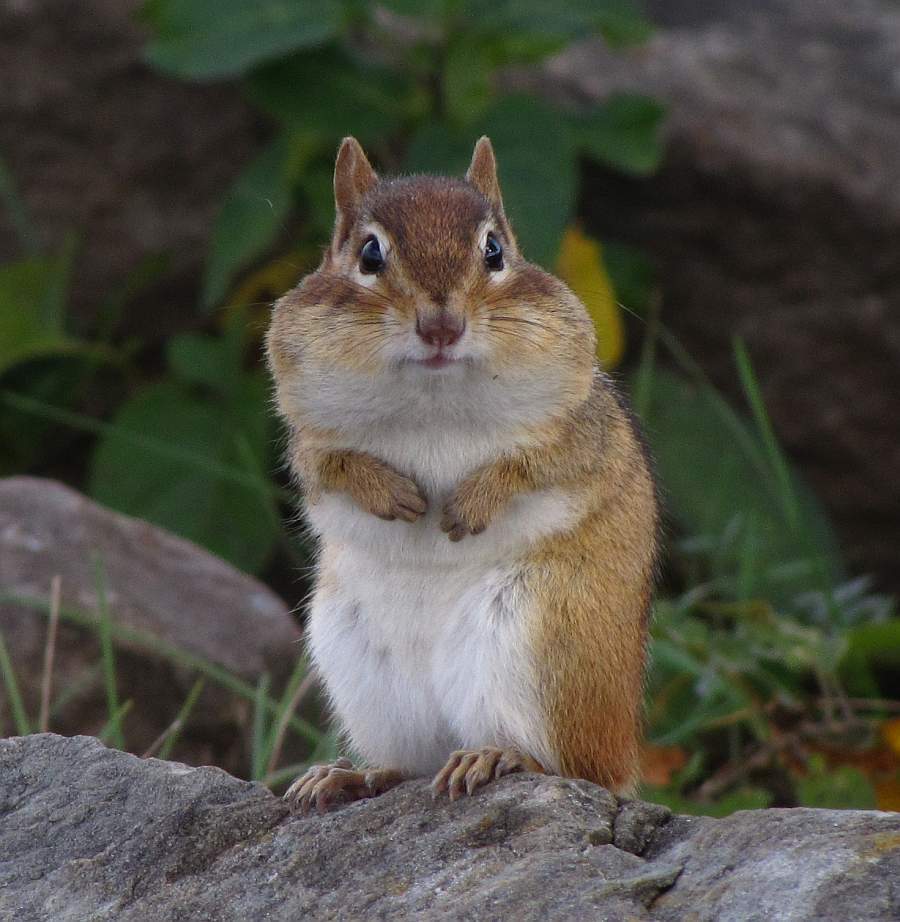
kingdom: Animalia
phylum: Chordata
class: Mammalia
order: Rodentia
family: Sciuridae
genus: Tamias
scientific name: Tamias striatus
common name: Eastern chipmunk
